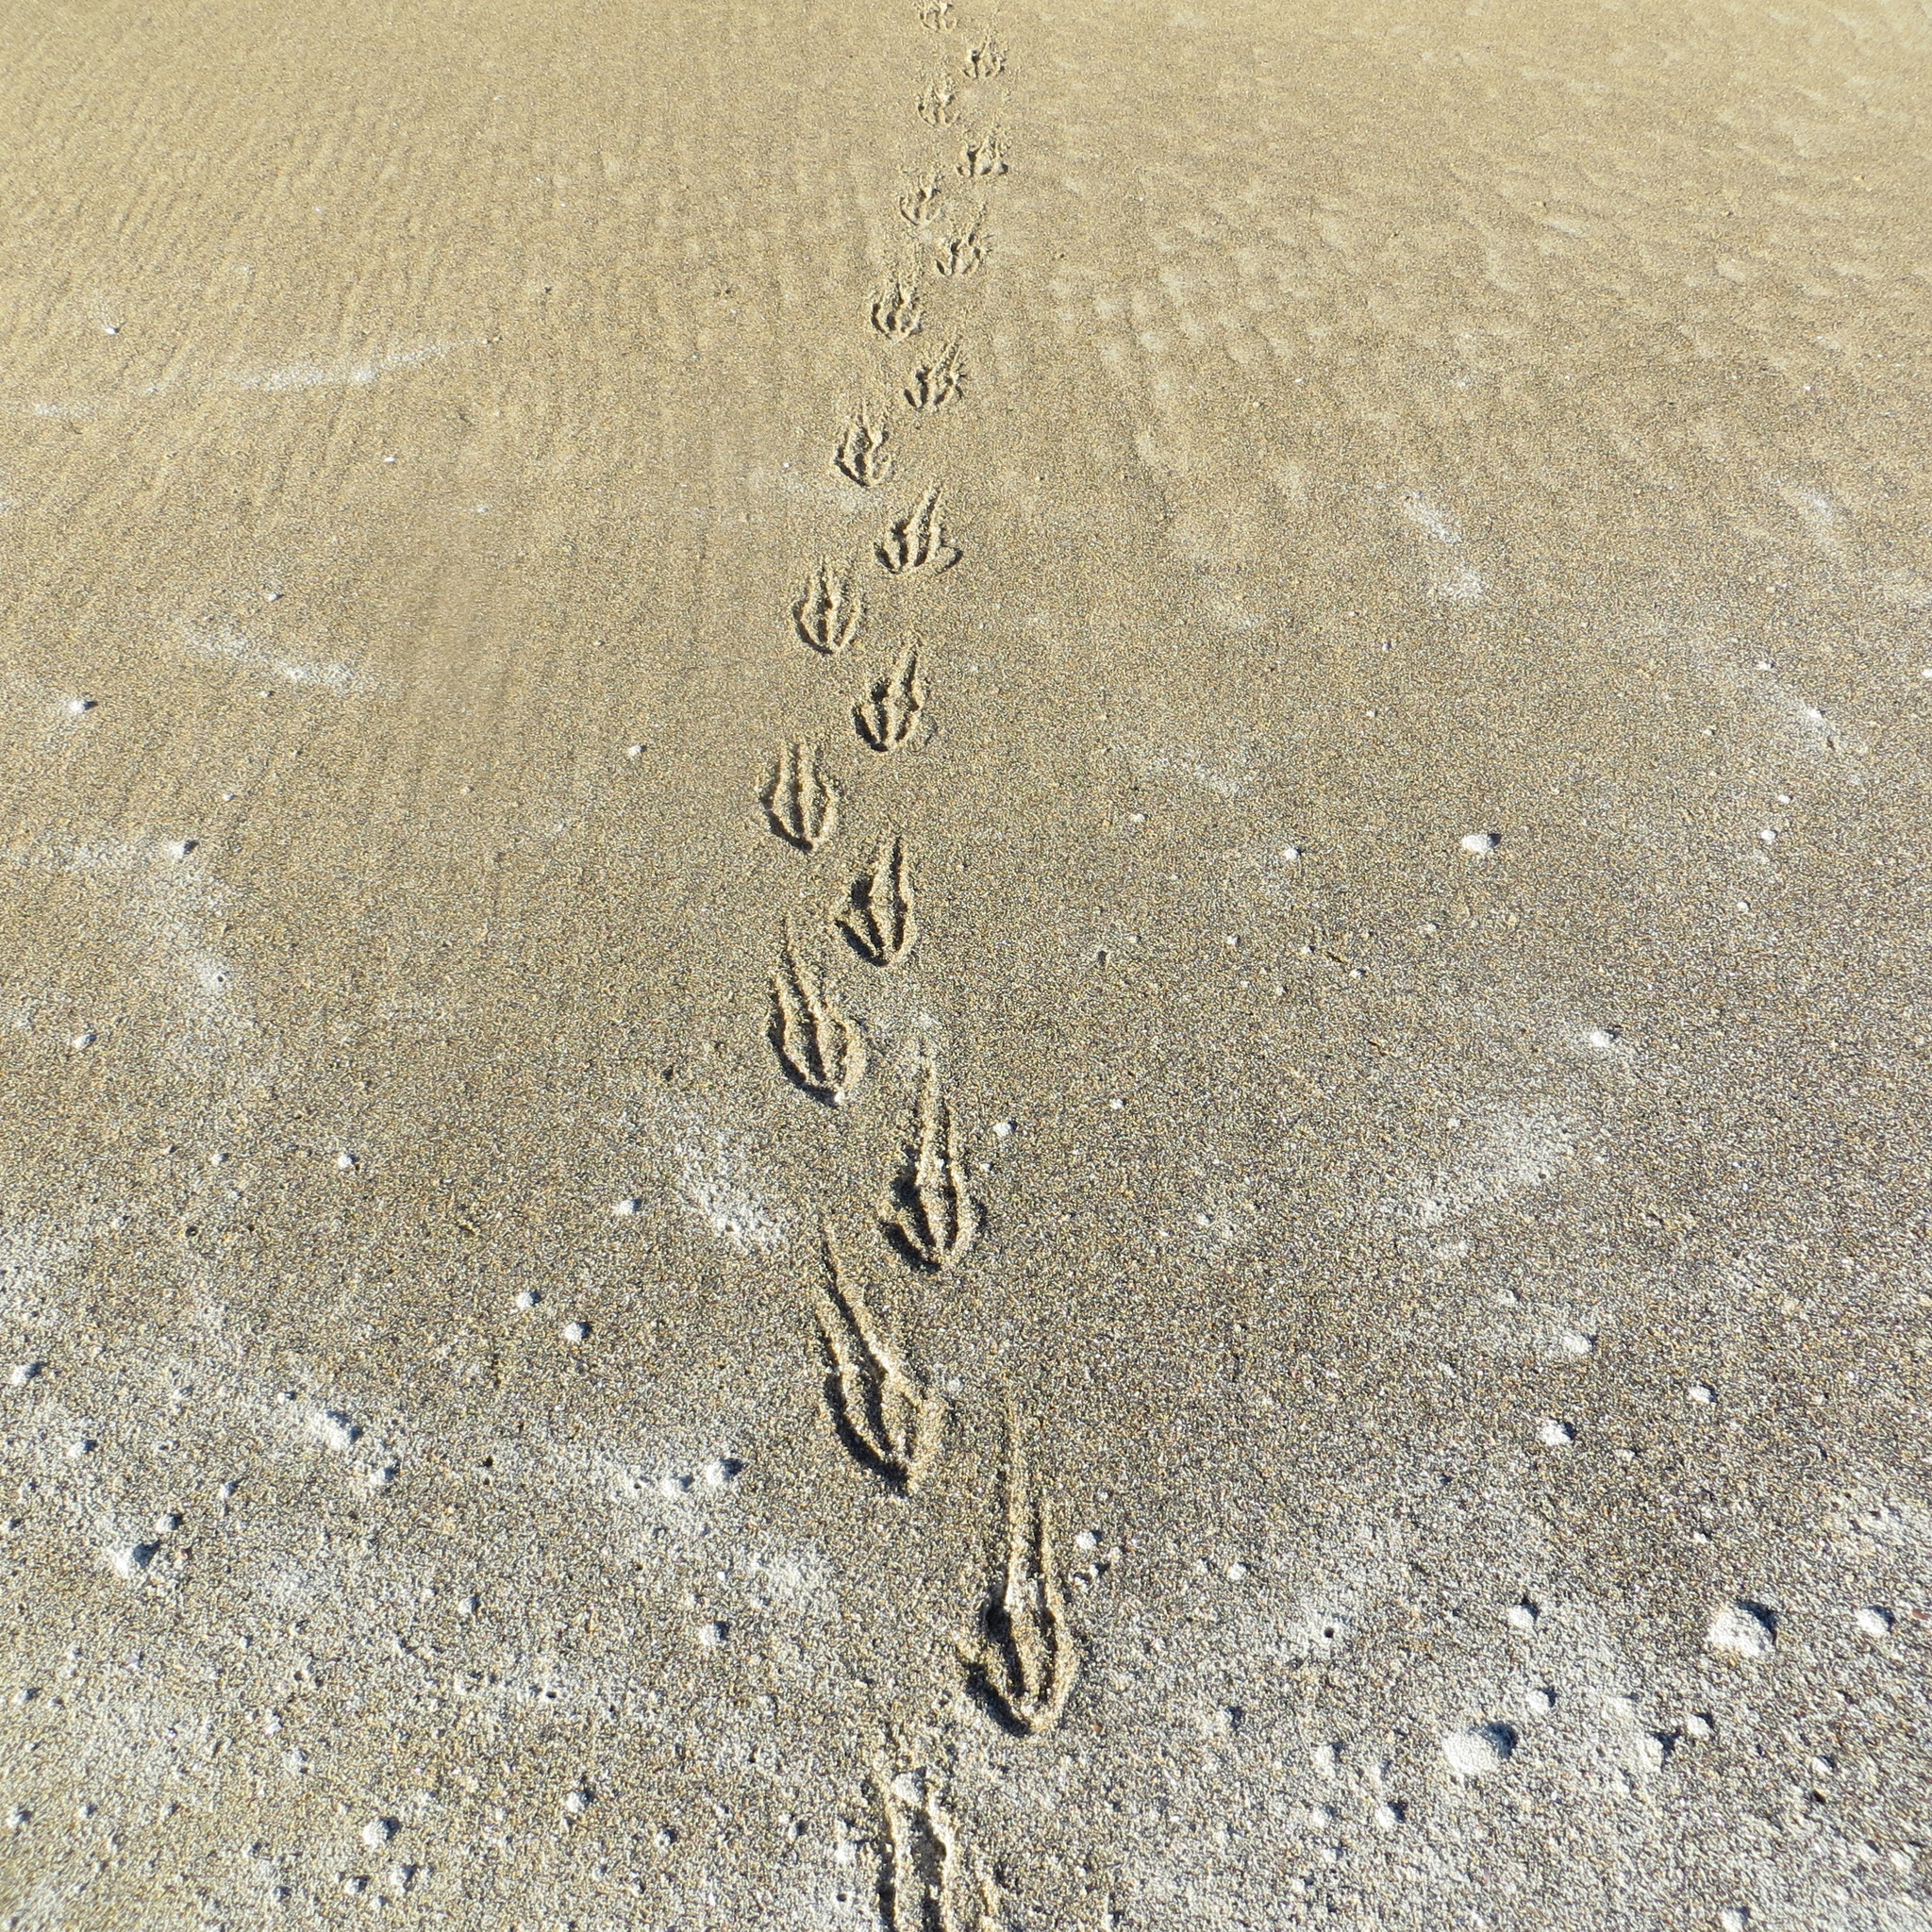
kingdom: Animalia
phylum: Chordata
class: Aves
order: Sphenisciformes
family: Spheniscidae
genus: Megadyptes
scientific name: Megadyptes antipodes
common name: Yellow-eyed penguin
